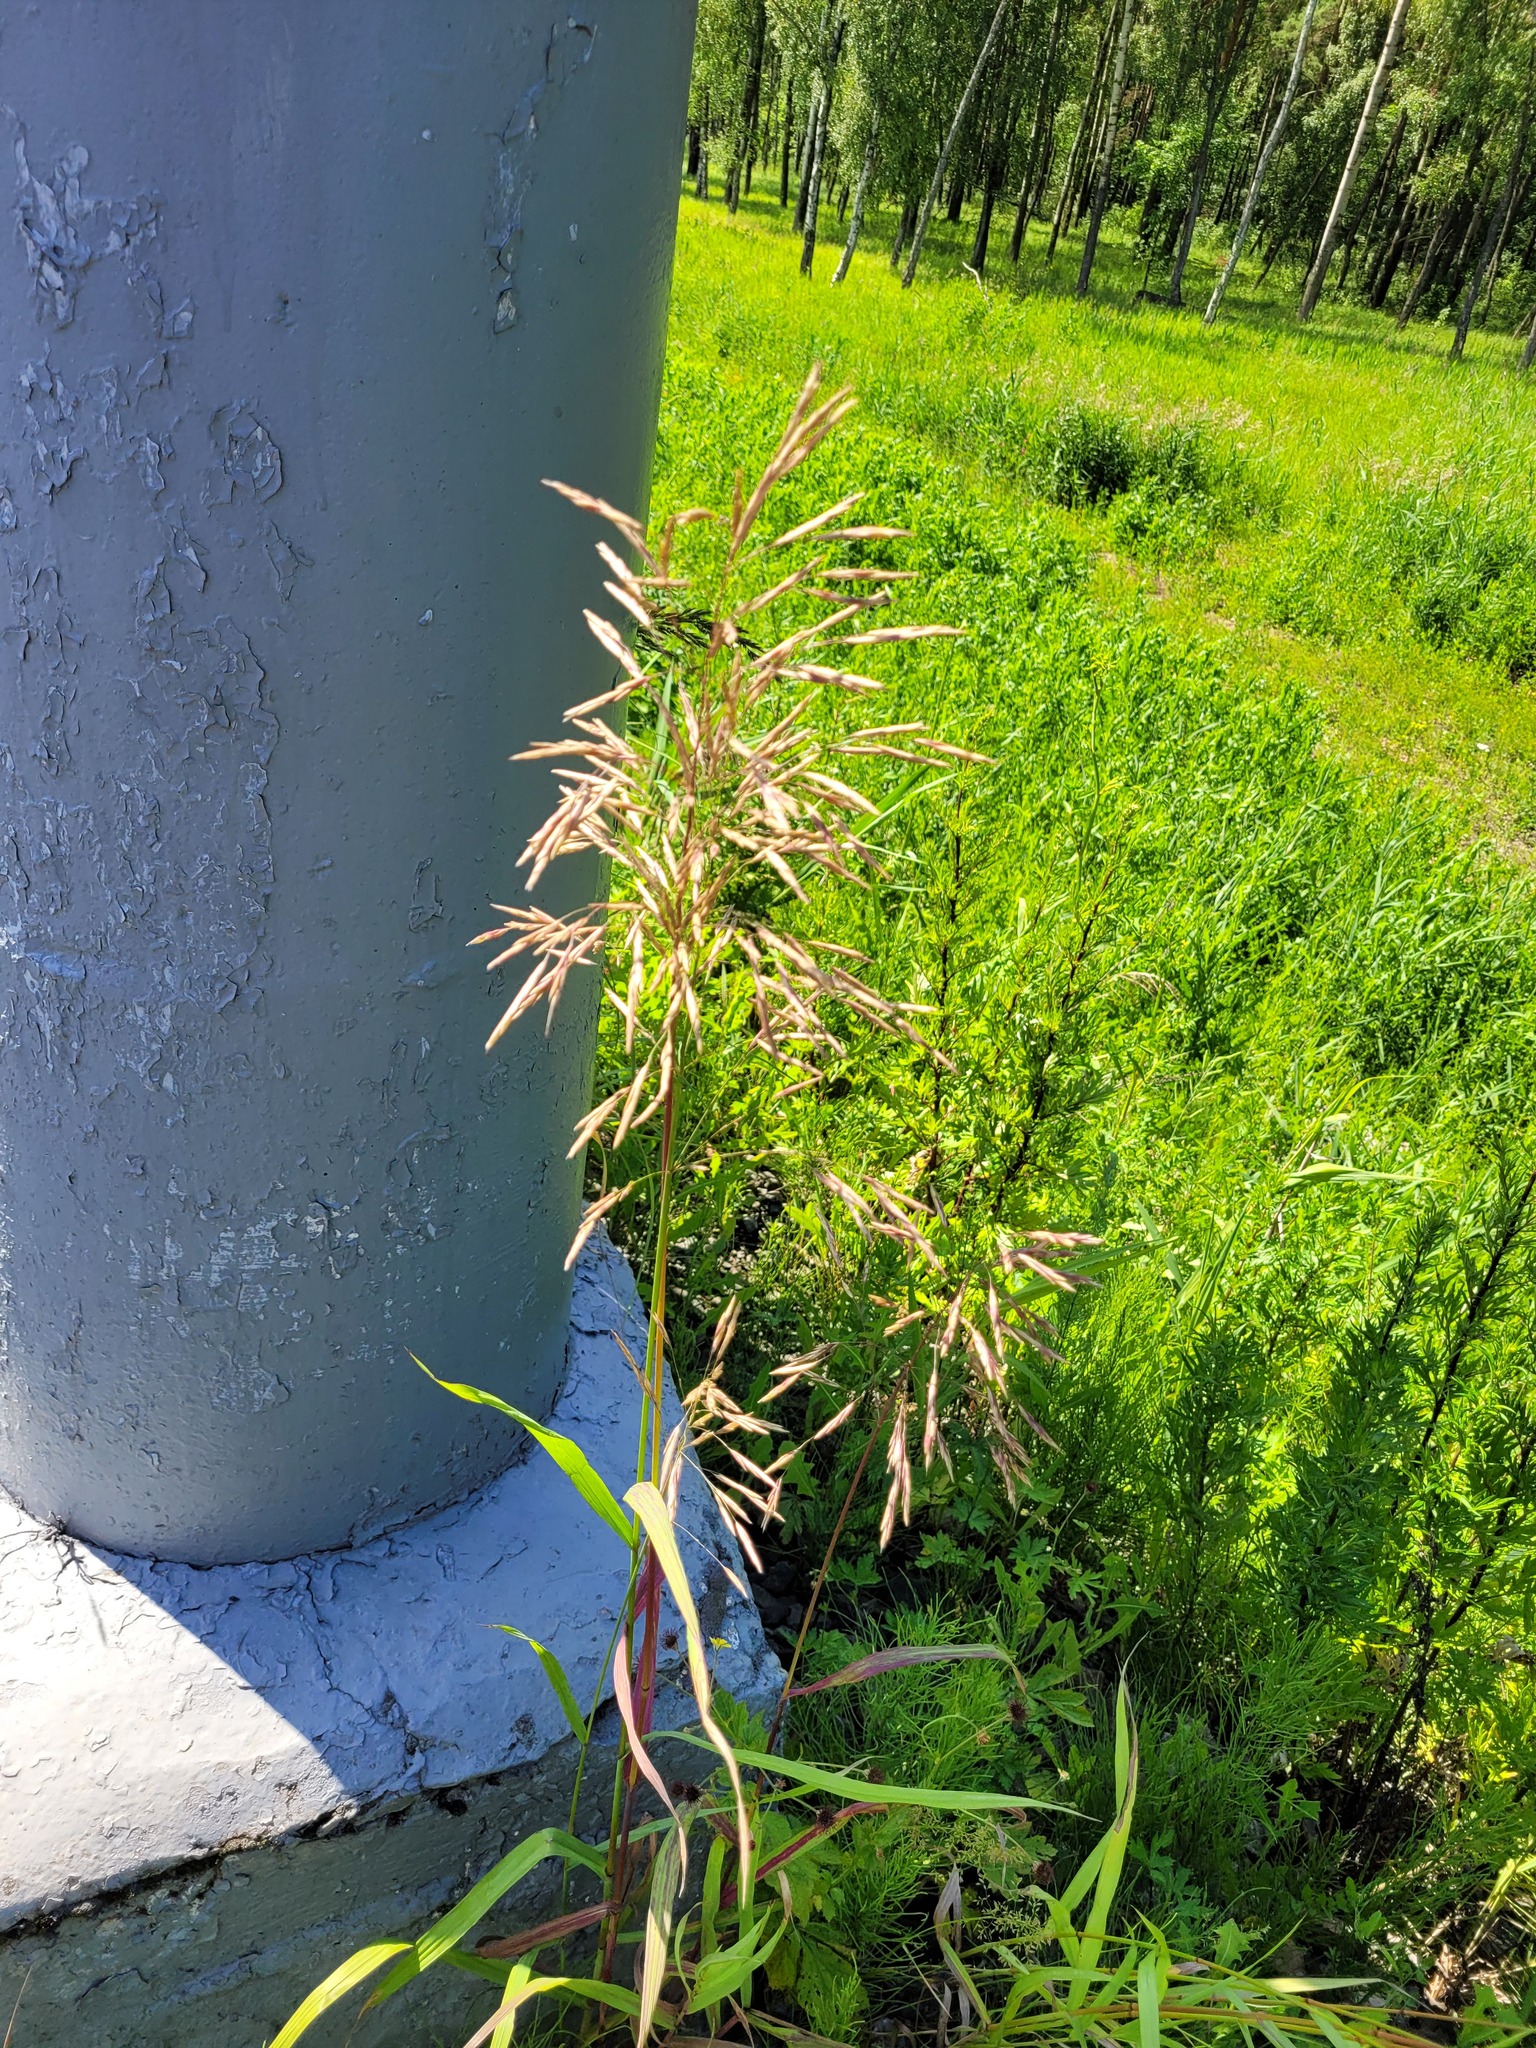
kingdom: Plantae
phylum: Tracheophyta
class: Liliopsida
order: Poales
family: Poaceae
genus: Bromus
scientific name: Bromus inermis
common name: Smooth brome
